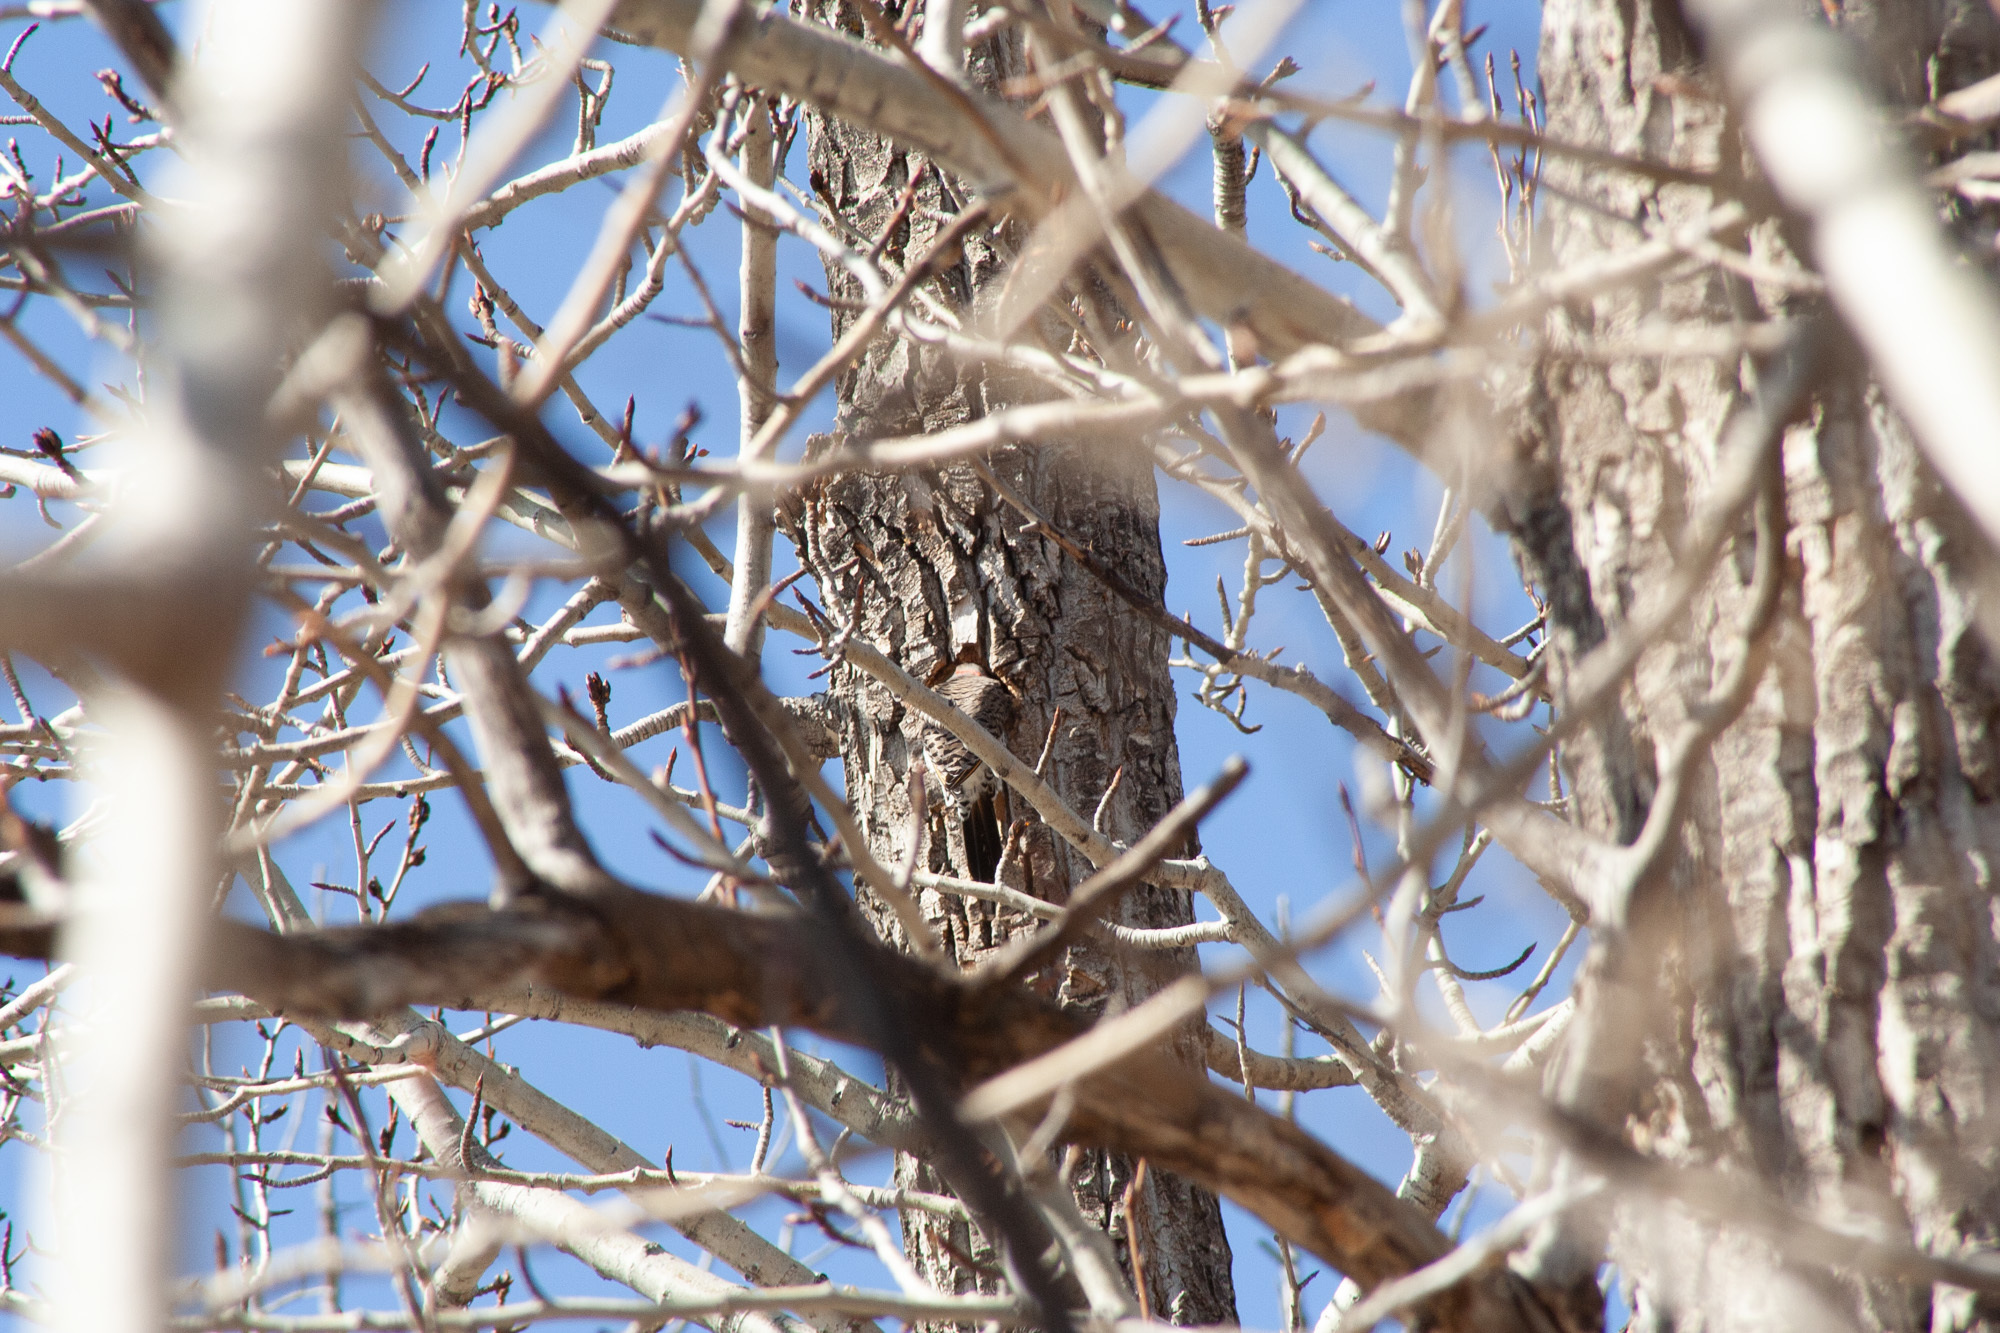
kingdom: Animalia
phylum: Chordata
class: Aves
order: Piciformes
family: Picidae
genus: Colaptes
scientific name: Colaptes auratus
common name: Northern flicker
